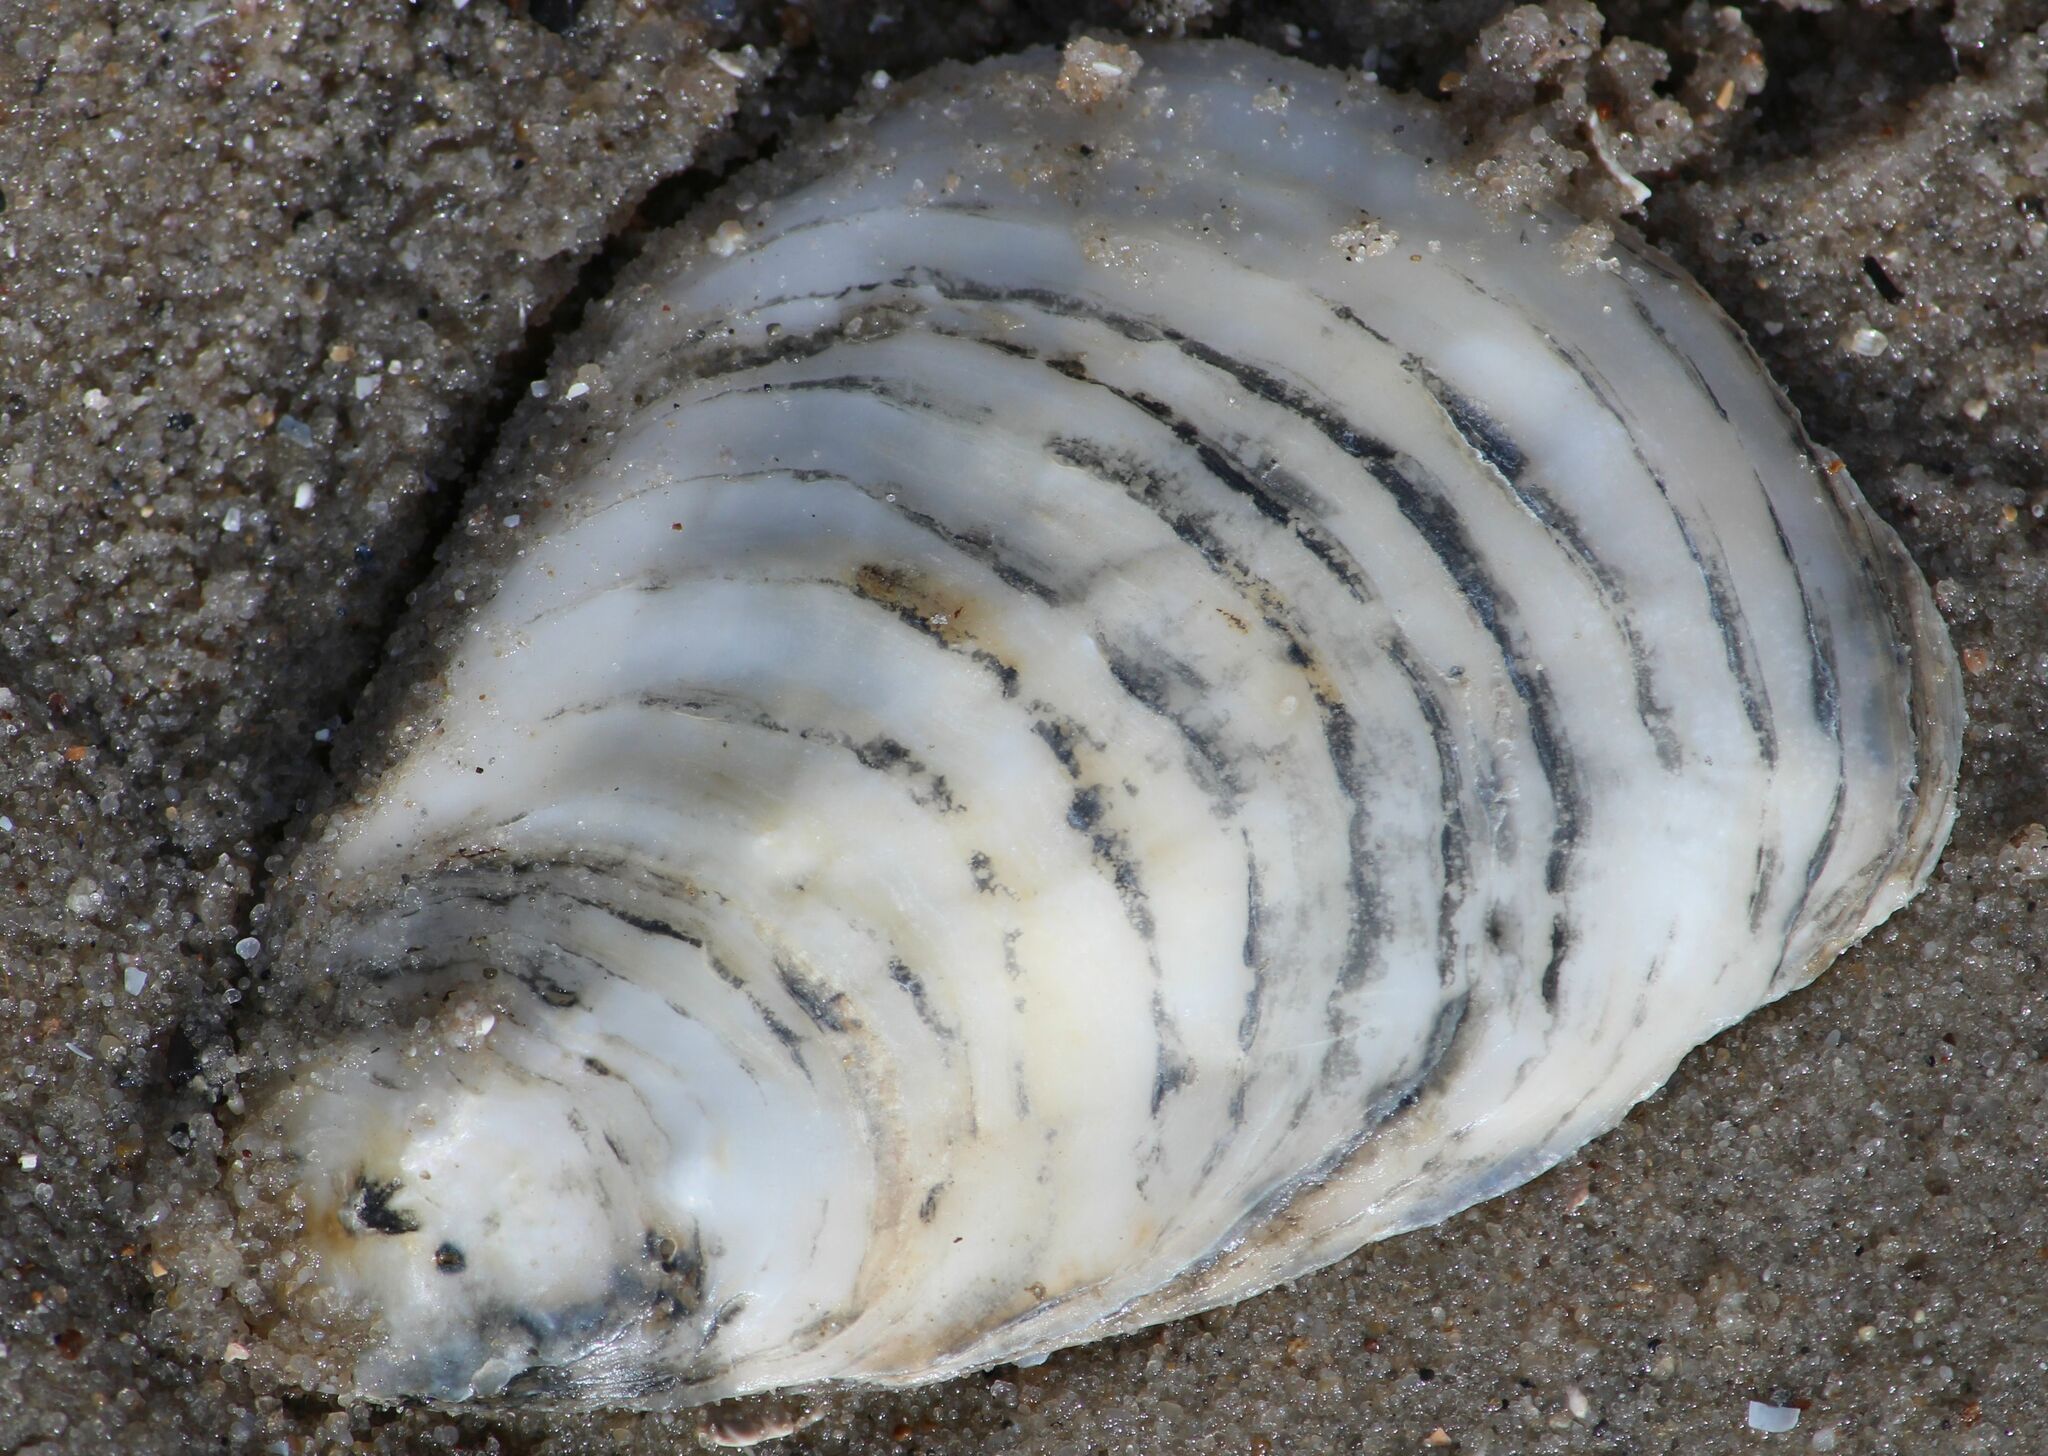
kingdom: Animalia
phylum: Mollusca
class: Bivalvia
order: Ostreida
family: Ostreidae
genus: Ostrea
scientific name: Ostrea edulis
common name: Flat oyster
